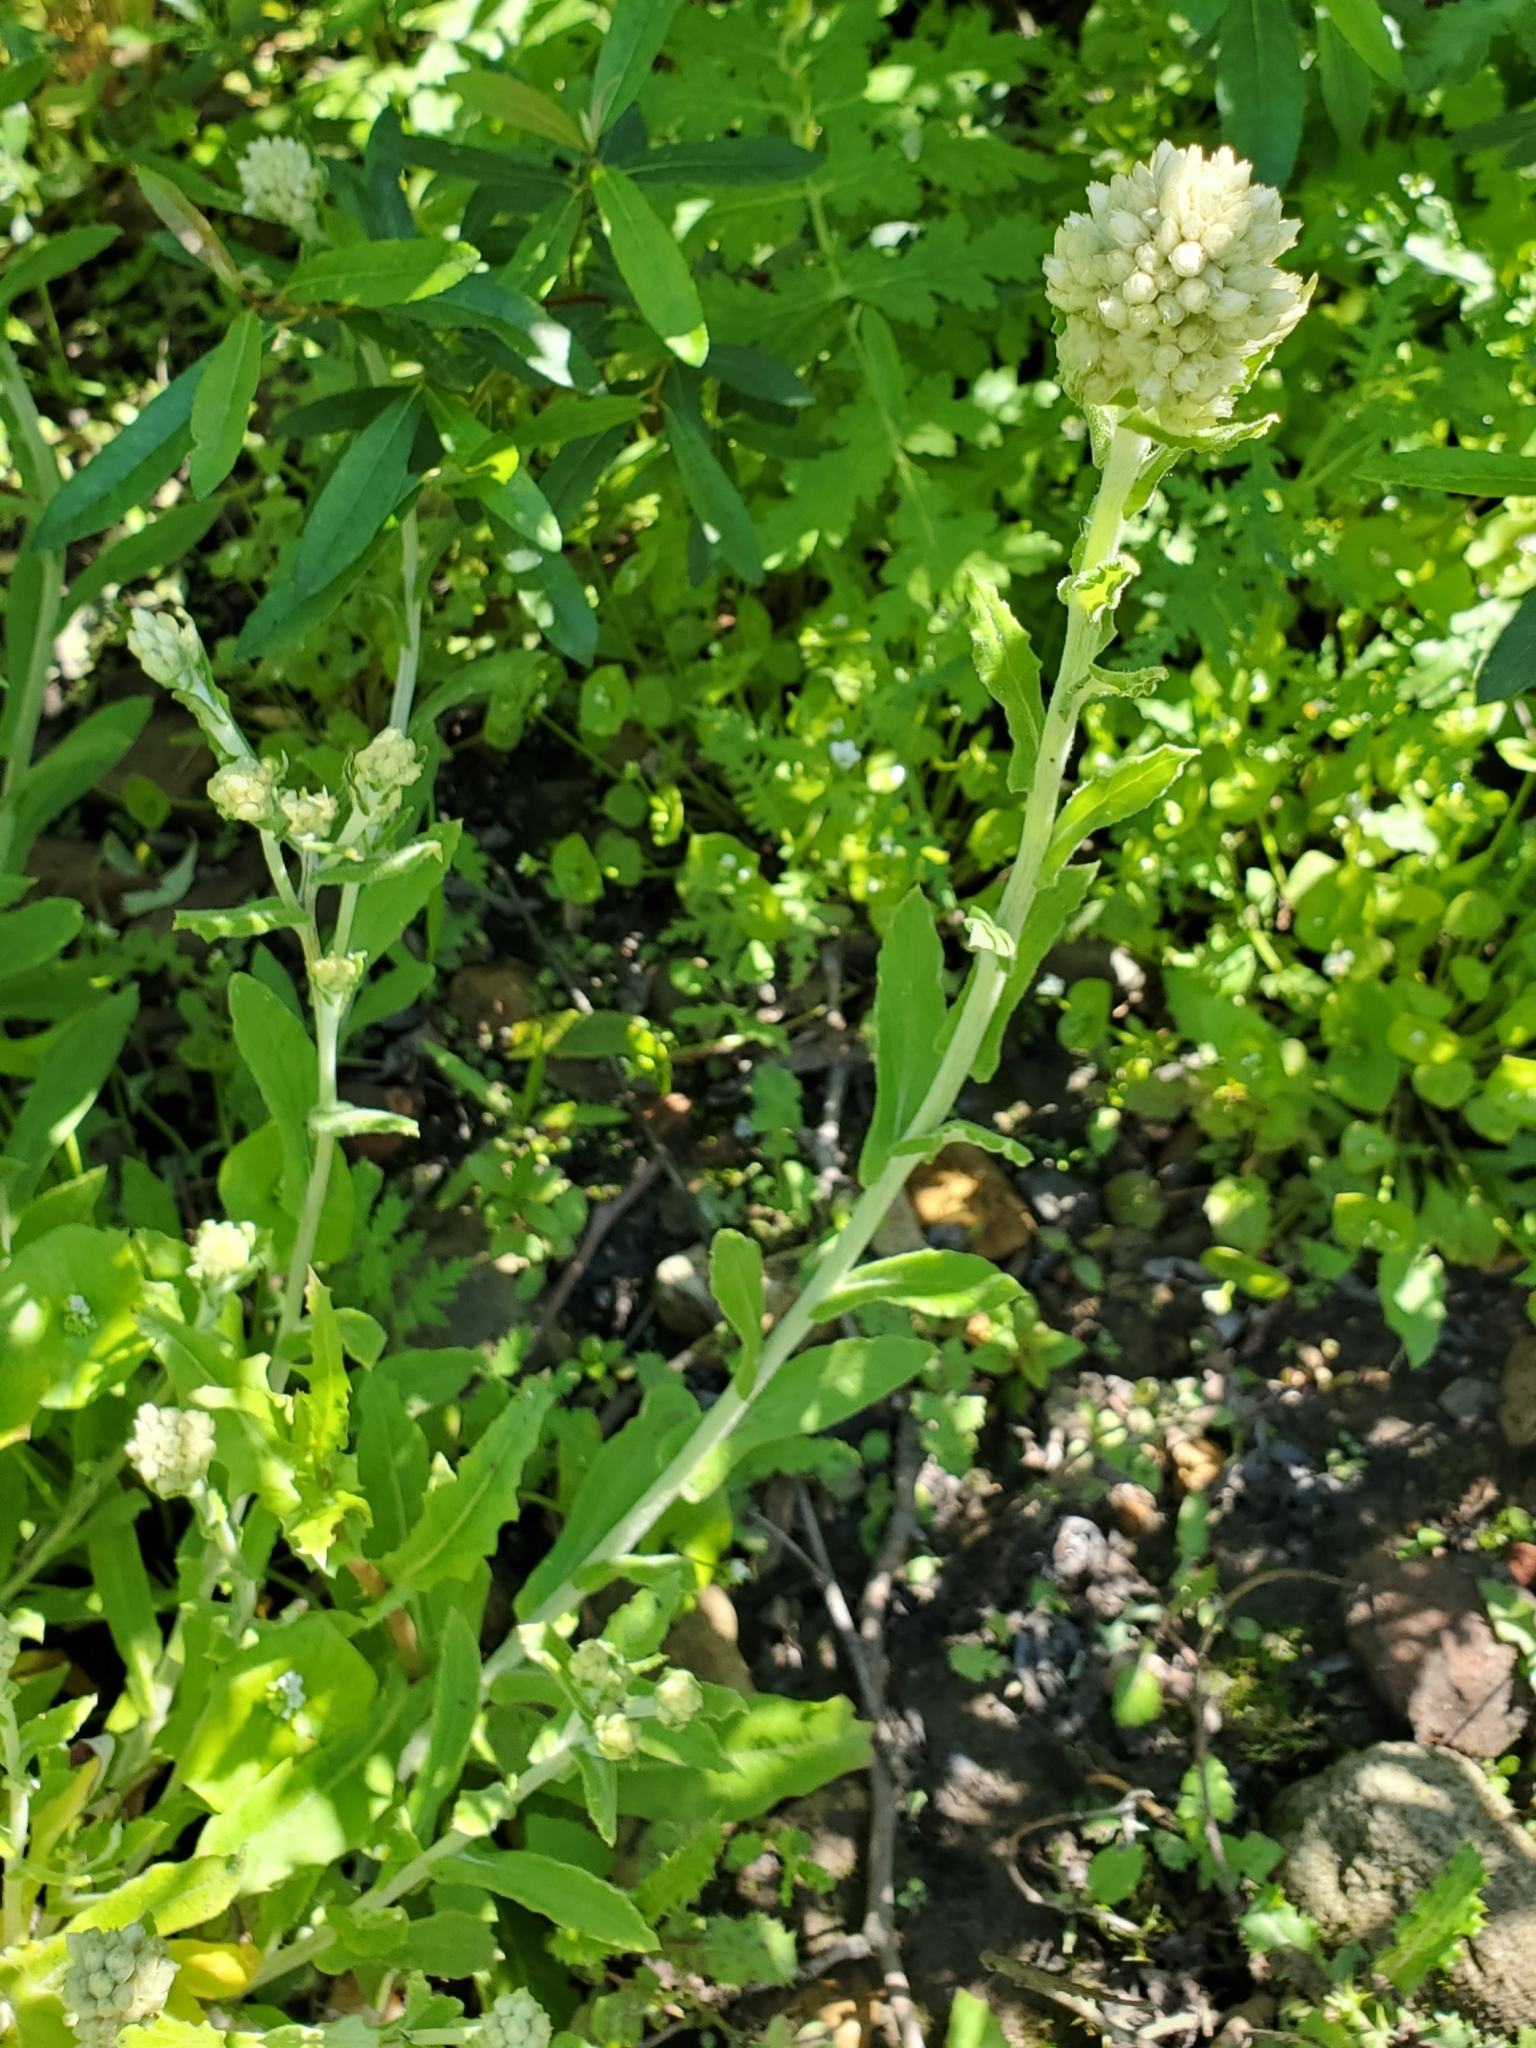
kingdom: Plantae
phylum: Tracheophyta
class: Magnoliopsida
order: Asterales
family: Asteraceae
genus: Pseudognaphalium
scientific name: Pseudognaphalium biolettii
